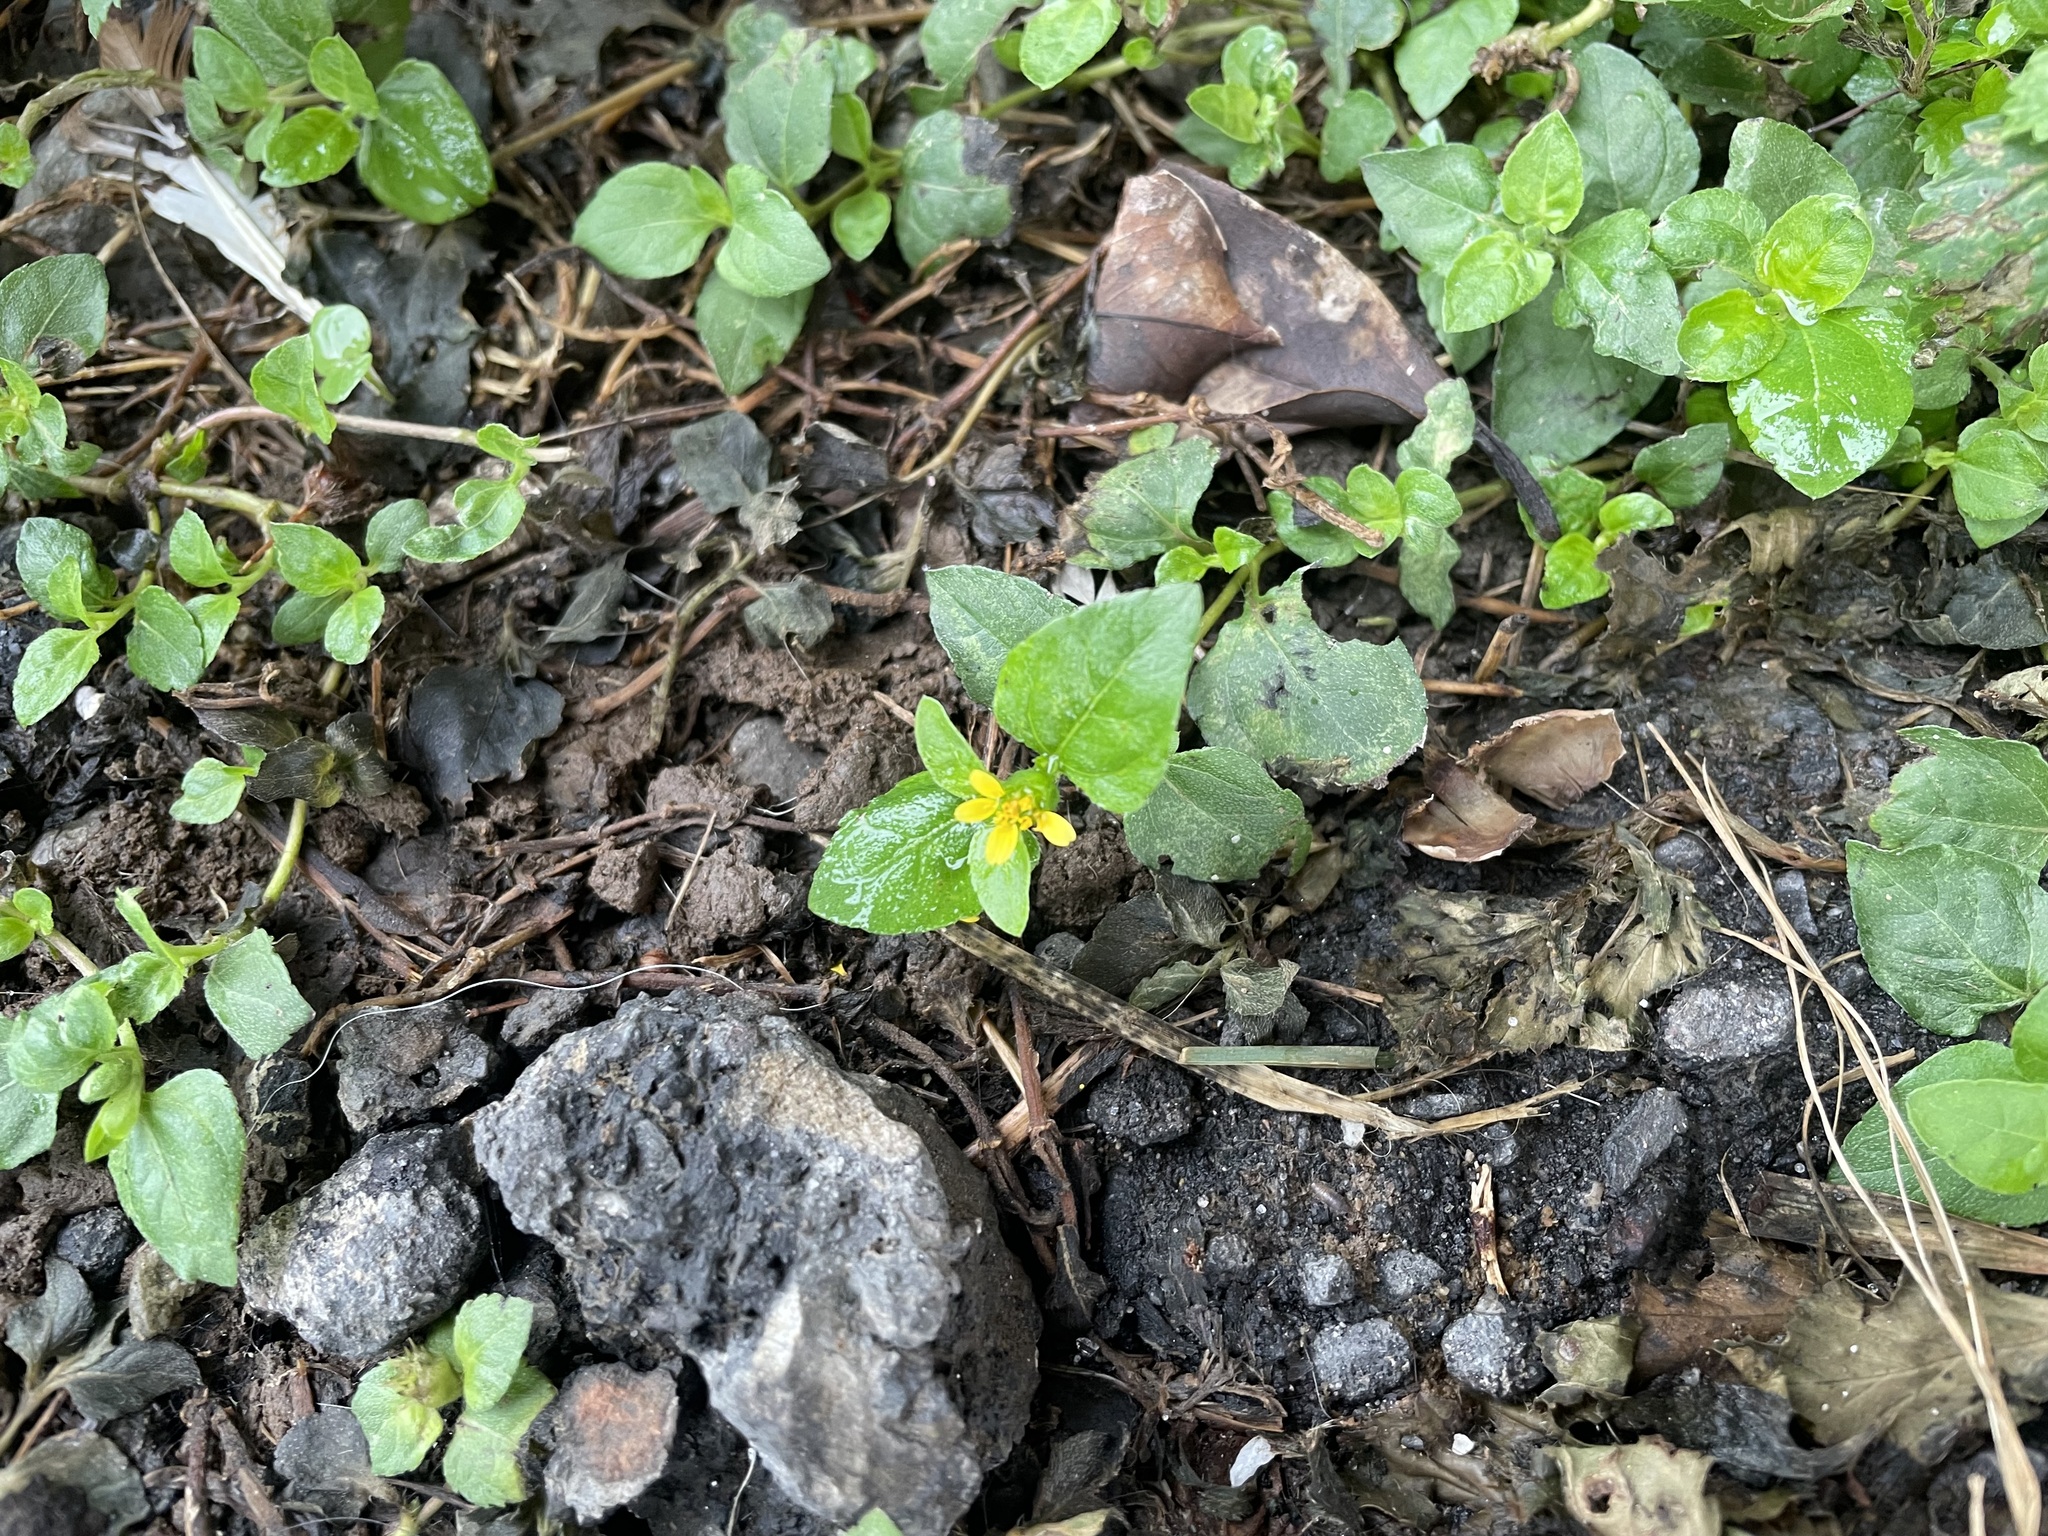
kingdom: Plantae
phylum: Tracheophyta
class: Magnoliopsida
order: Asterales
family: Asteraceae
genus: Calyptocarpus
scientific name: Calyptocarpus vialis
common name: Straggler daisy
